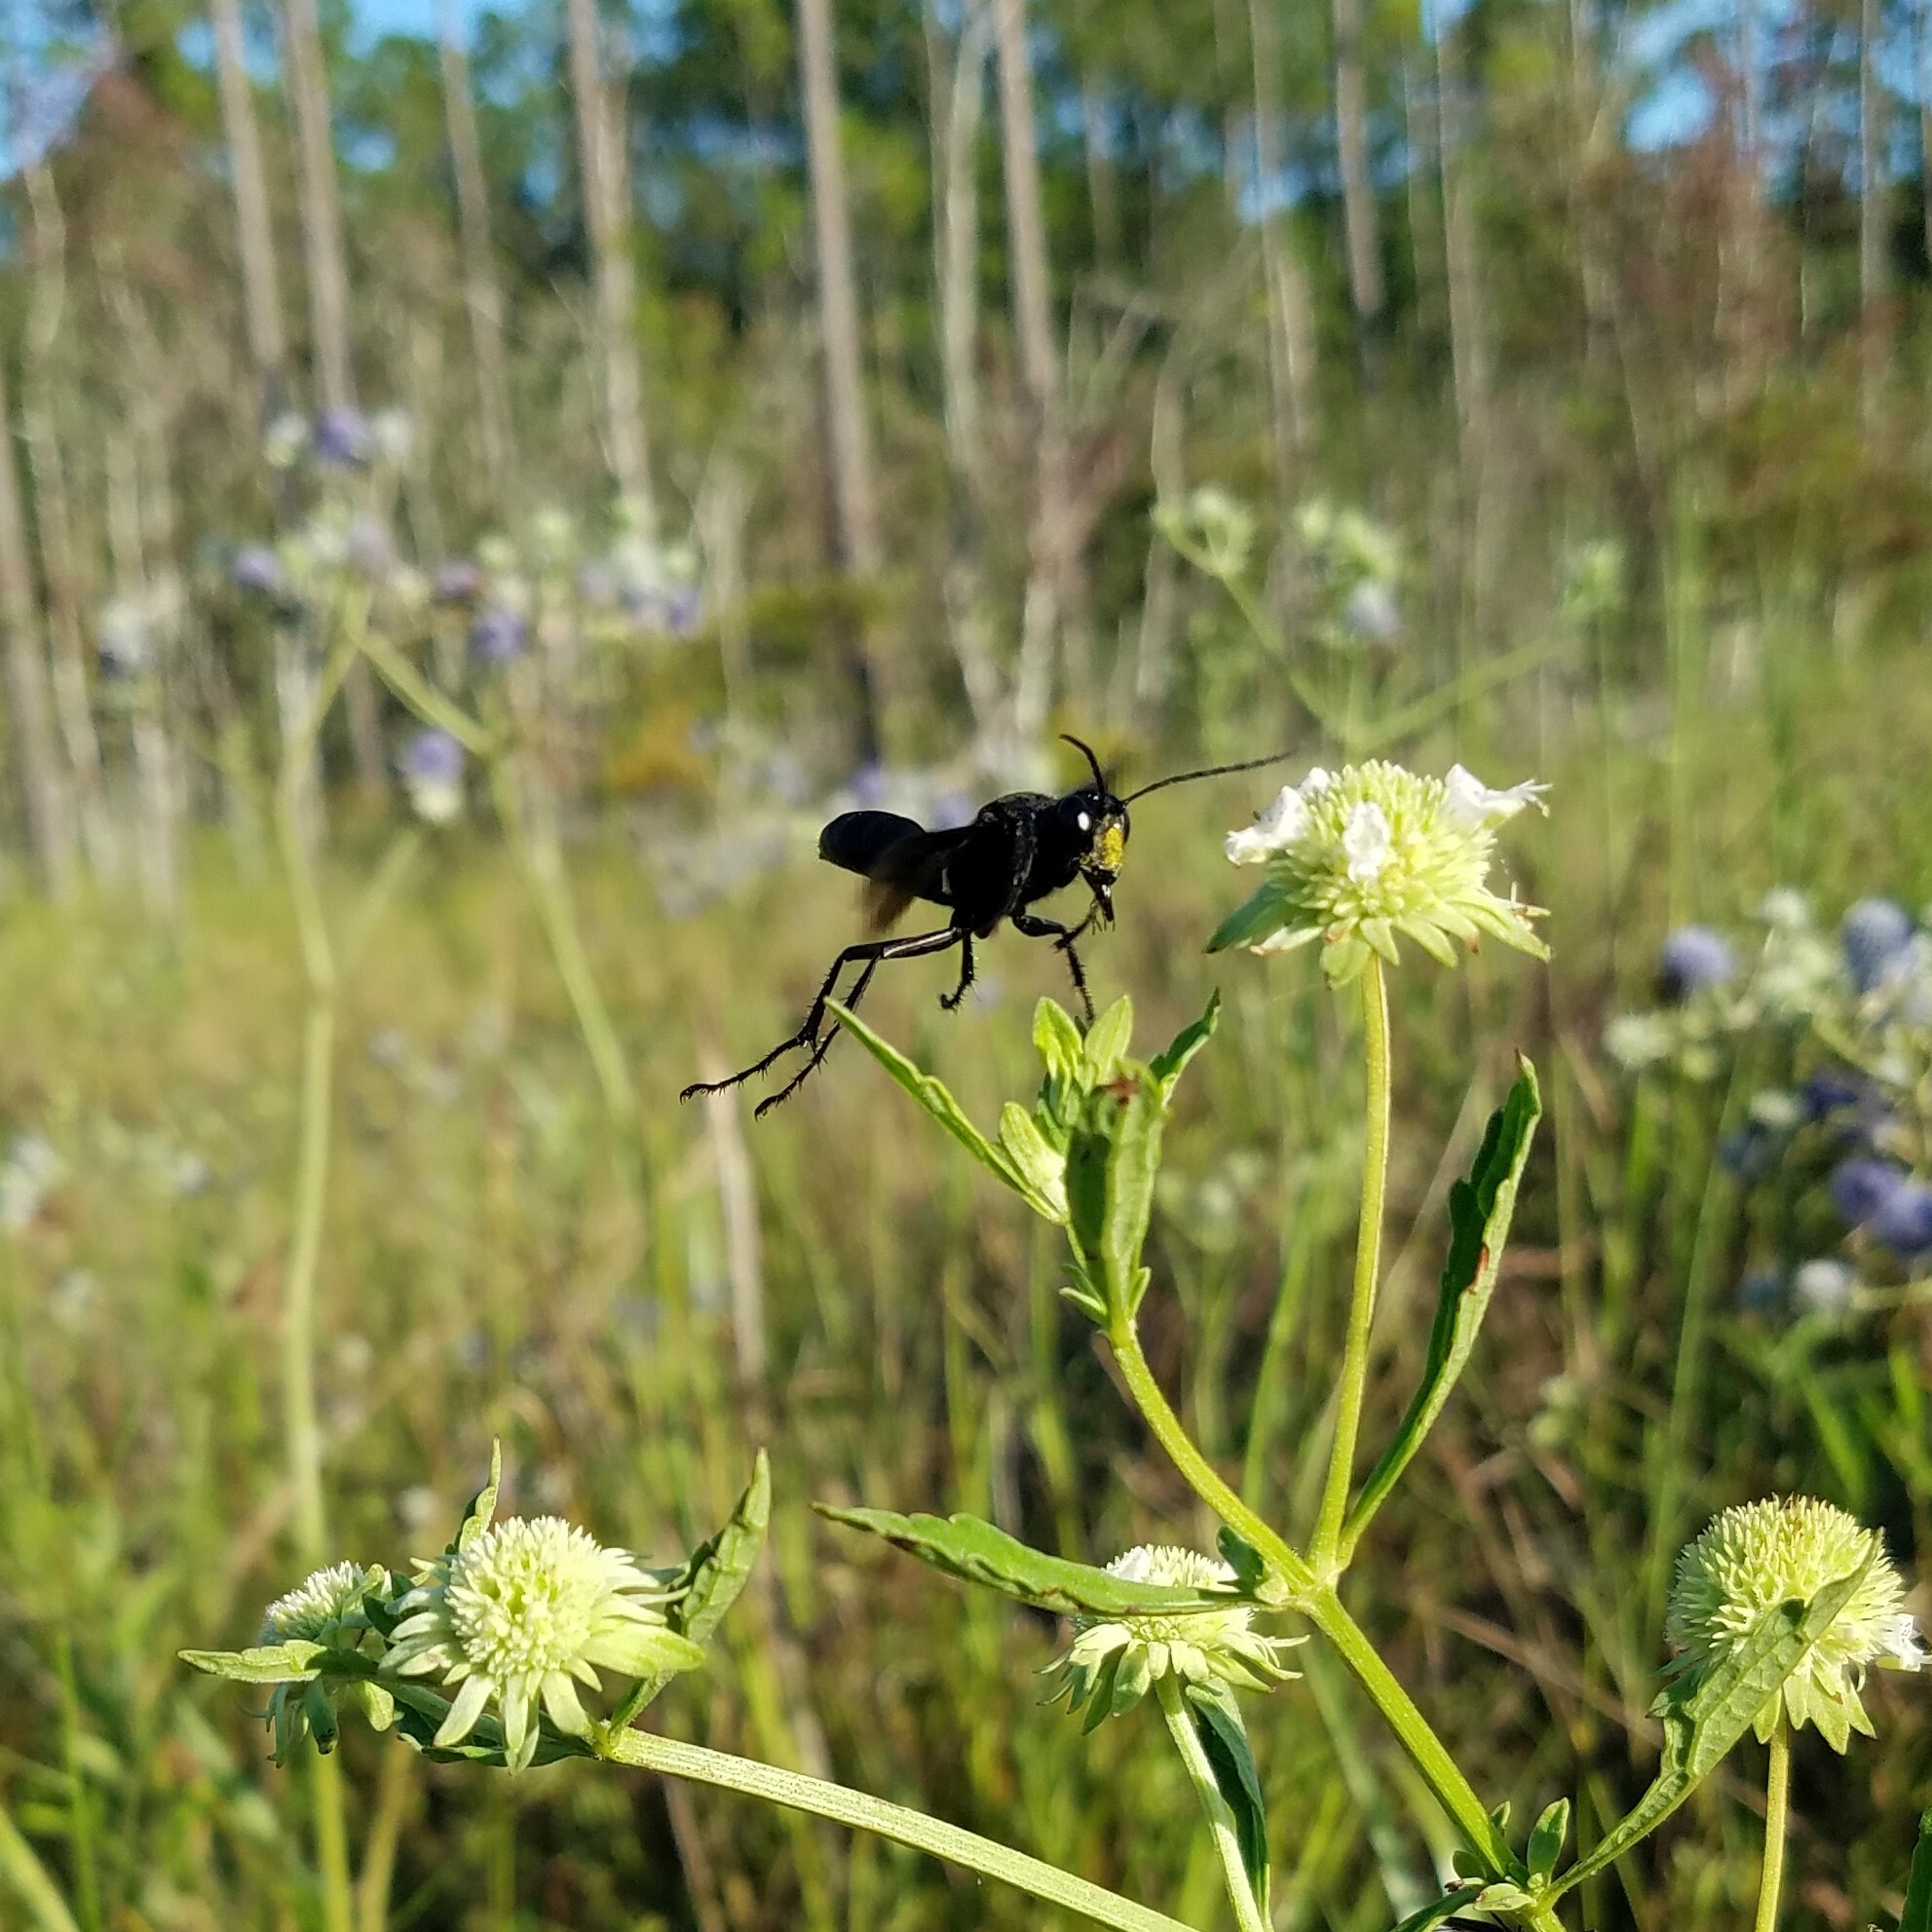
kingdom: Animalia
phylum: Arthropoda
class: Insecta
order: Hymenoptera
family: Sphecidae
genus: Sphex
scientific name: Sphex pensylvanicus
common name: Great black digger wasp
